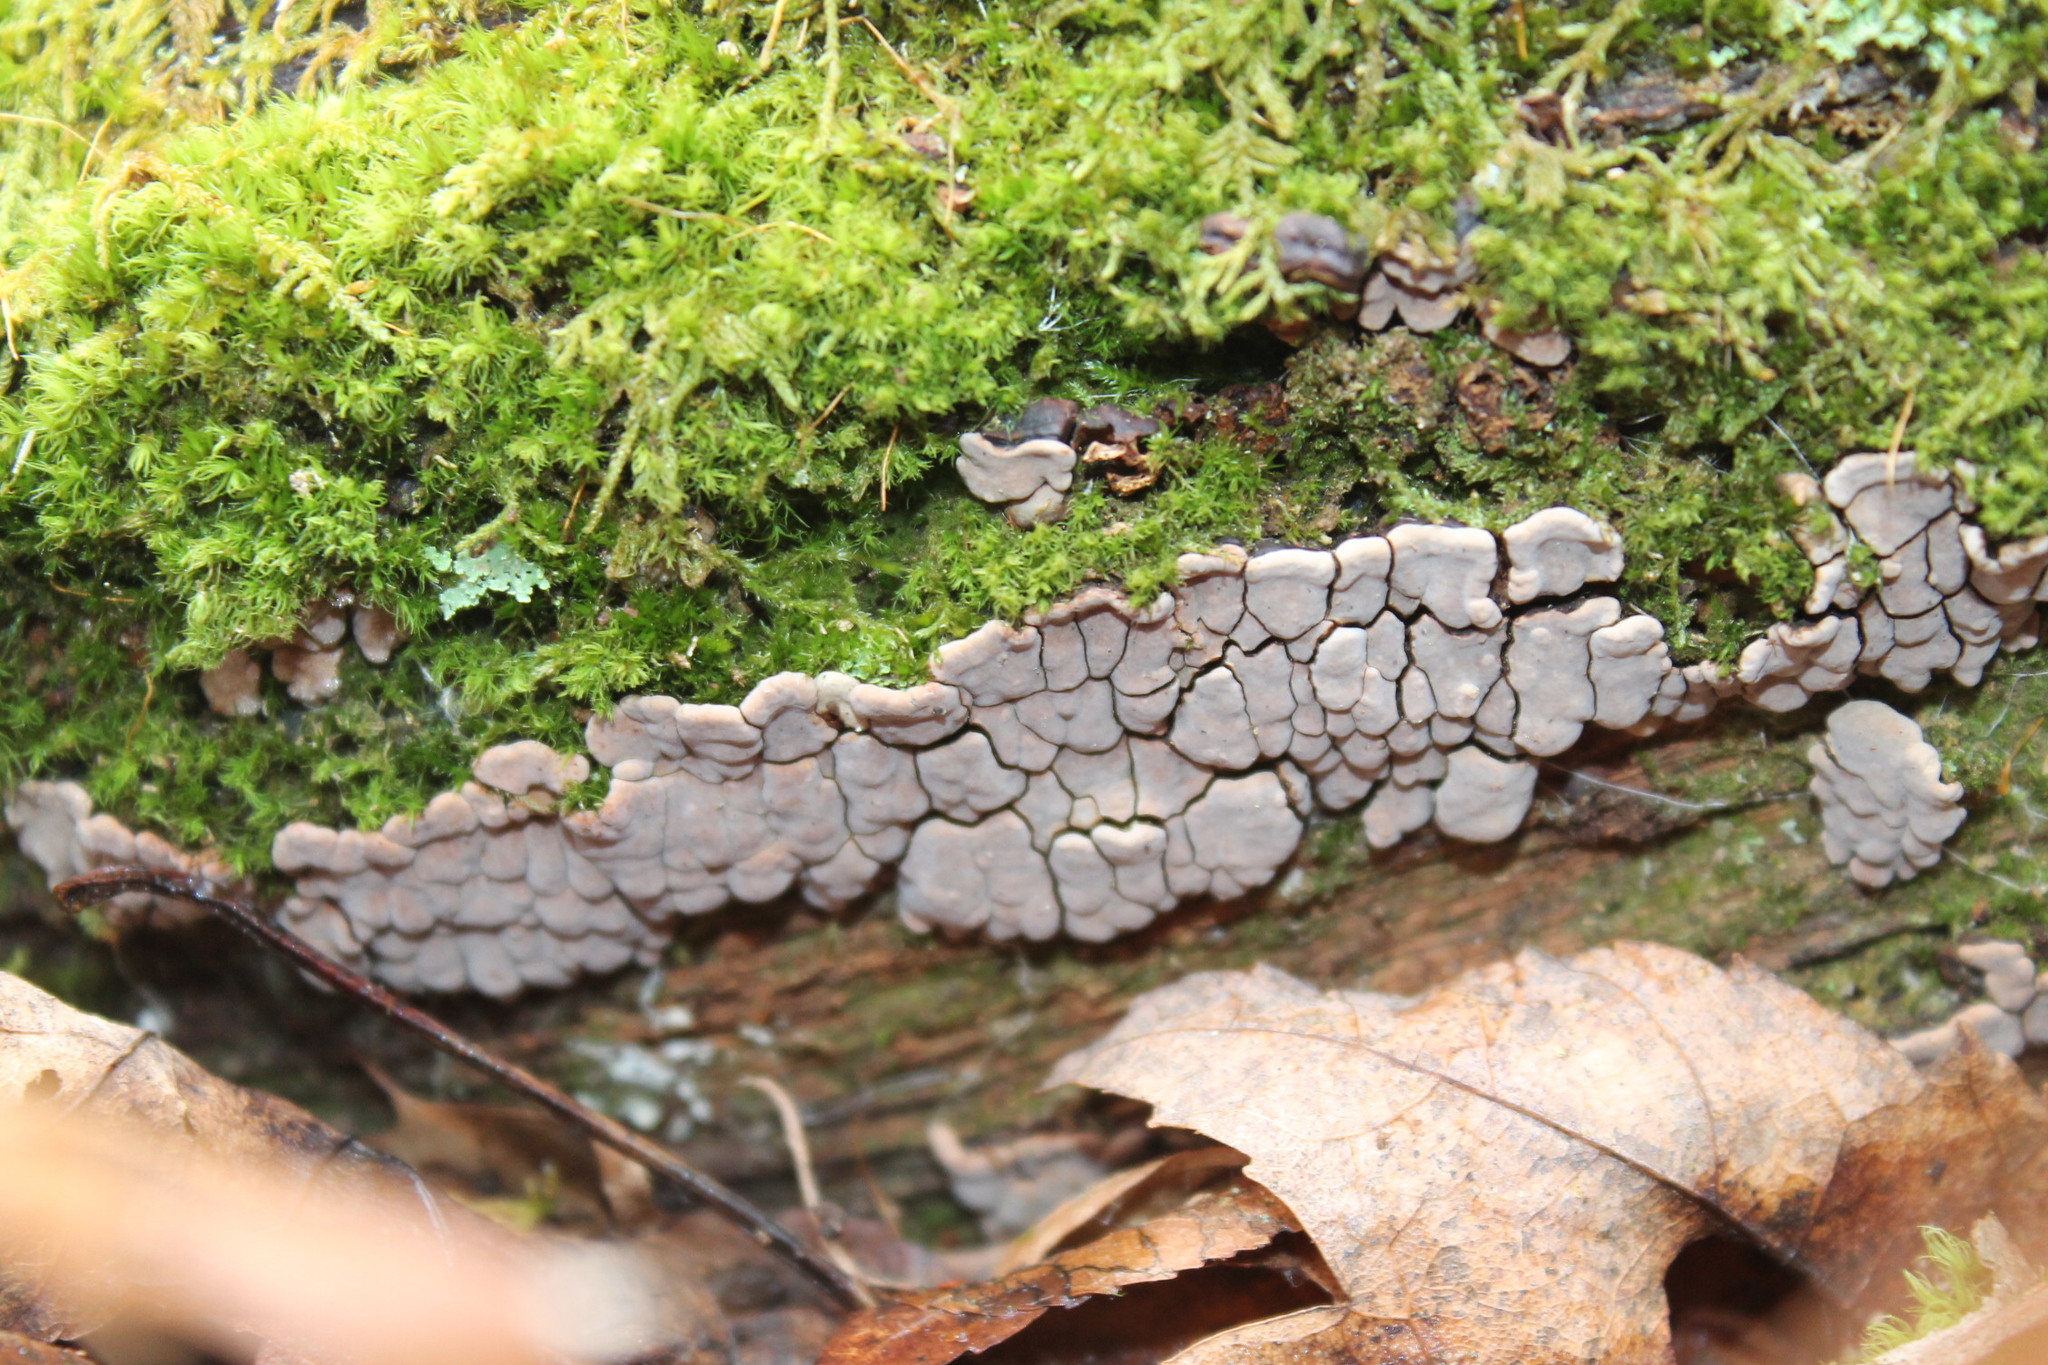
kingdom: Fungi
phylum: Basidiomycota
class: Agaricomycetes
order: Russulales
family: Stereaceae
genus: Xylobolus
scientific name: Xylobolus frustulatus
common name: Ceramic parchment
